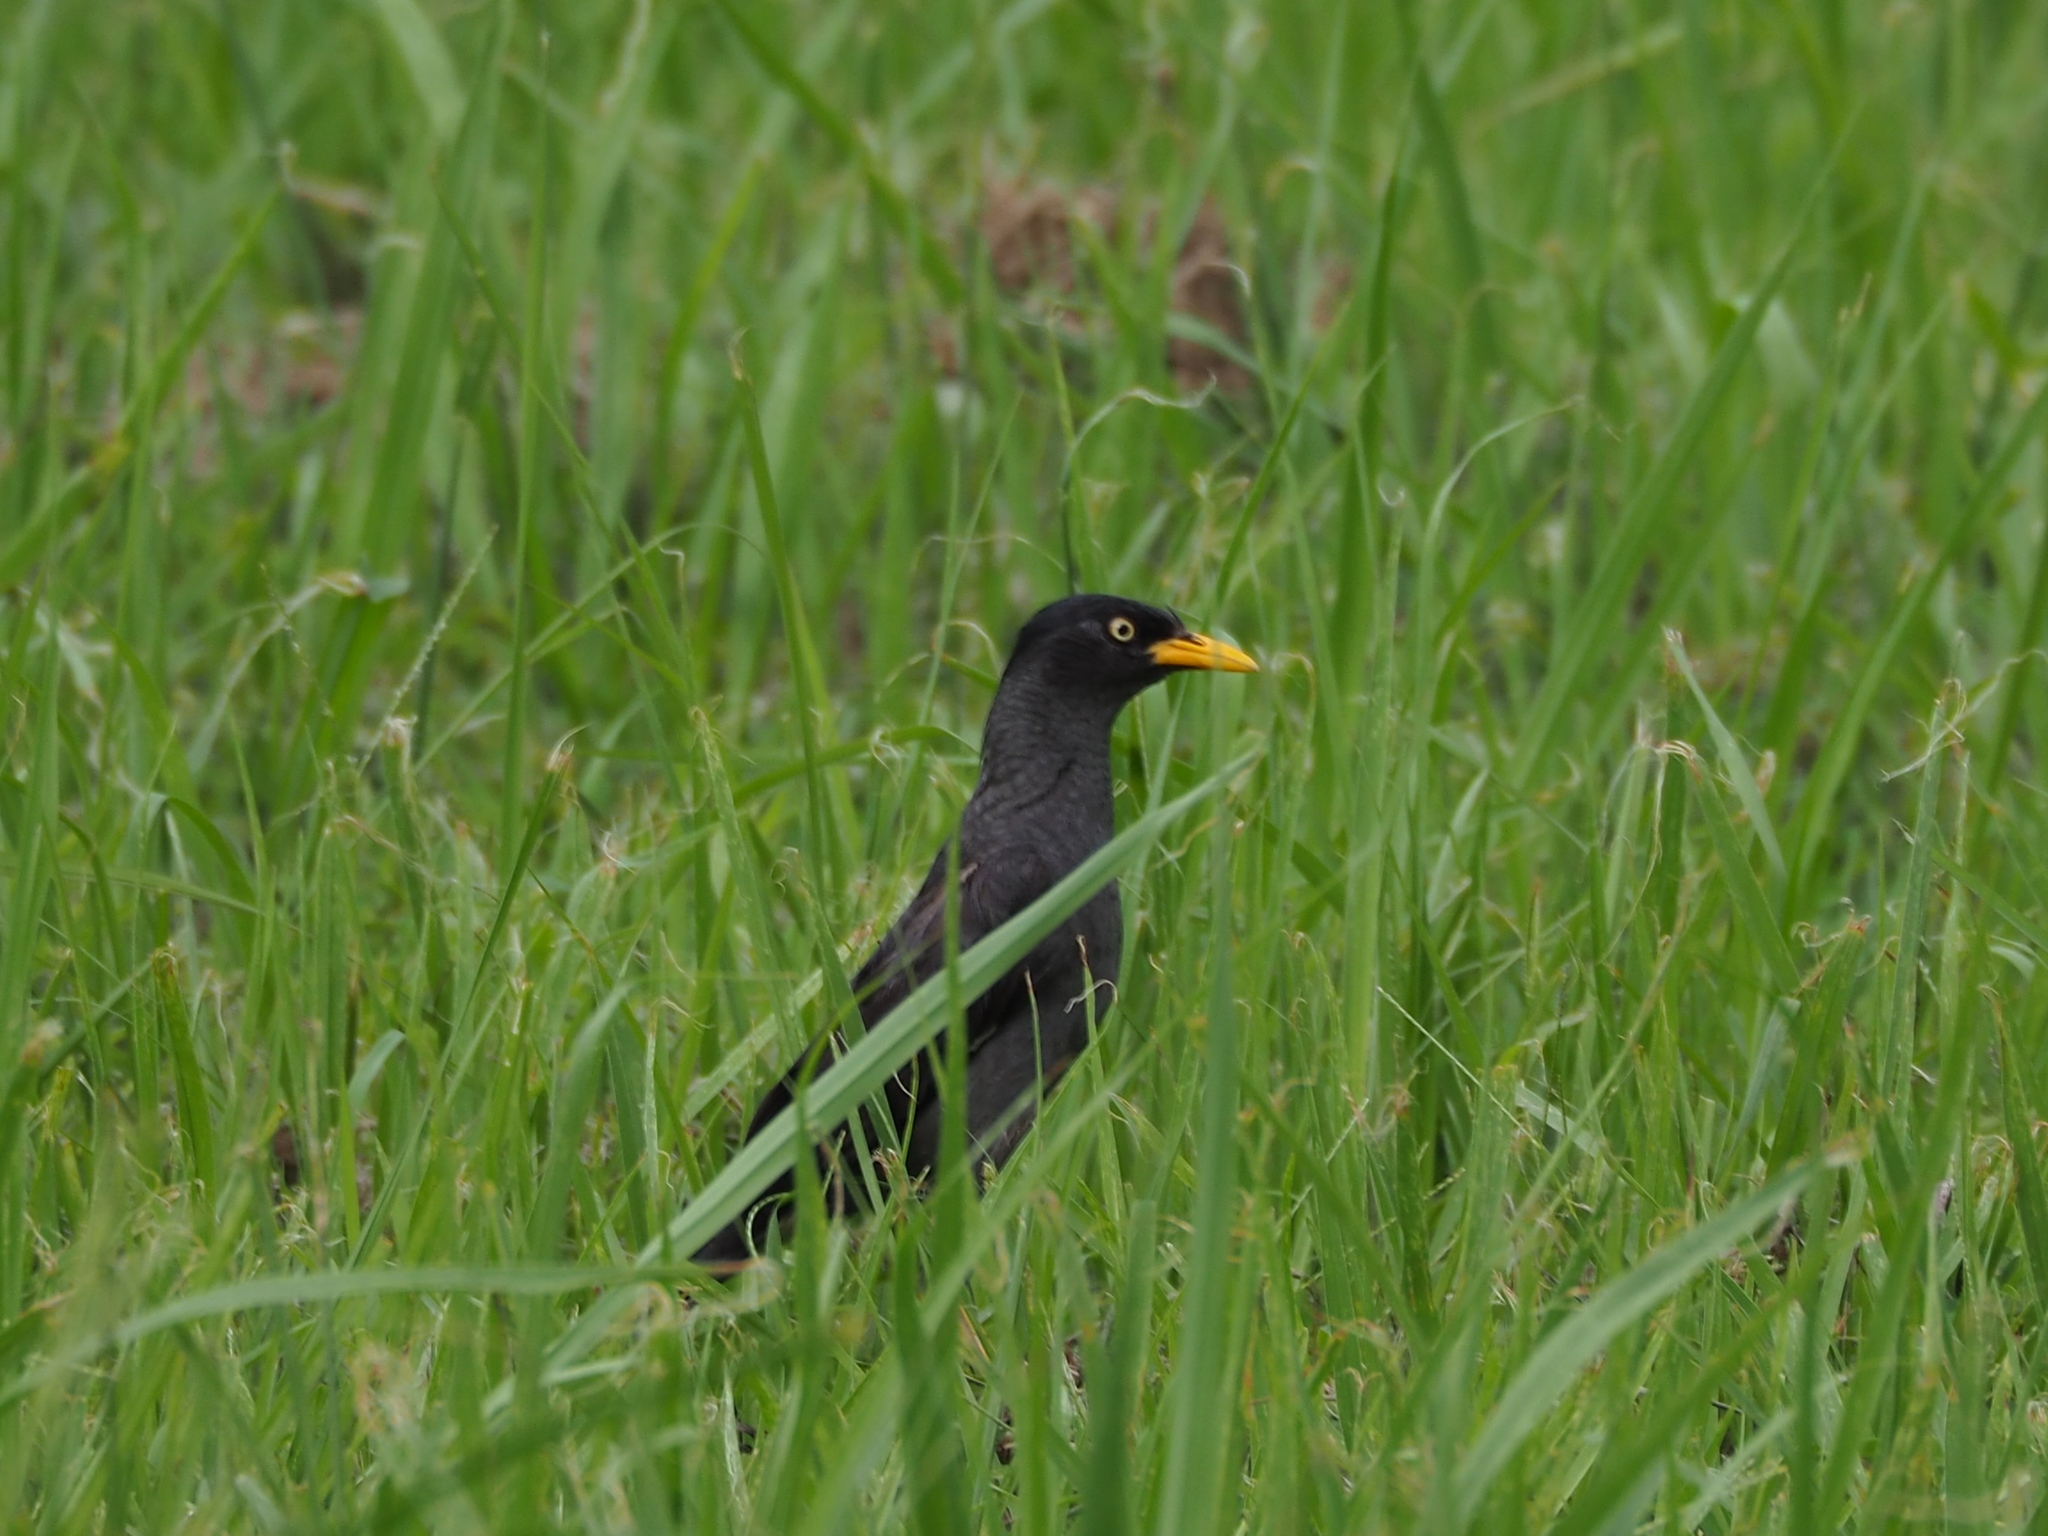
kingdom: Animalia
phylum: Chordata
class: Aves
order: Passeriformes
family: Sturnidae
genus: Acridotheres
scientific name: Acridotheres javanicus
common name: Javan myna
